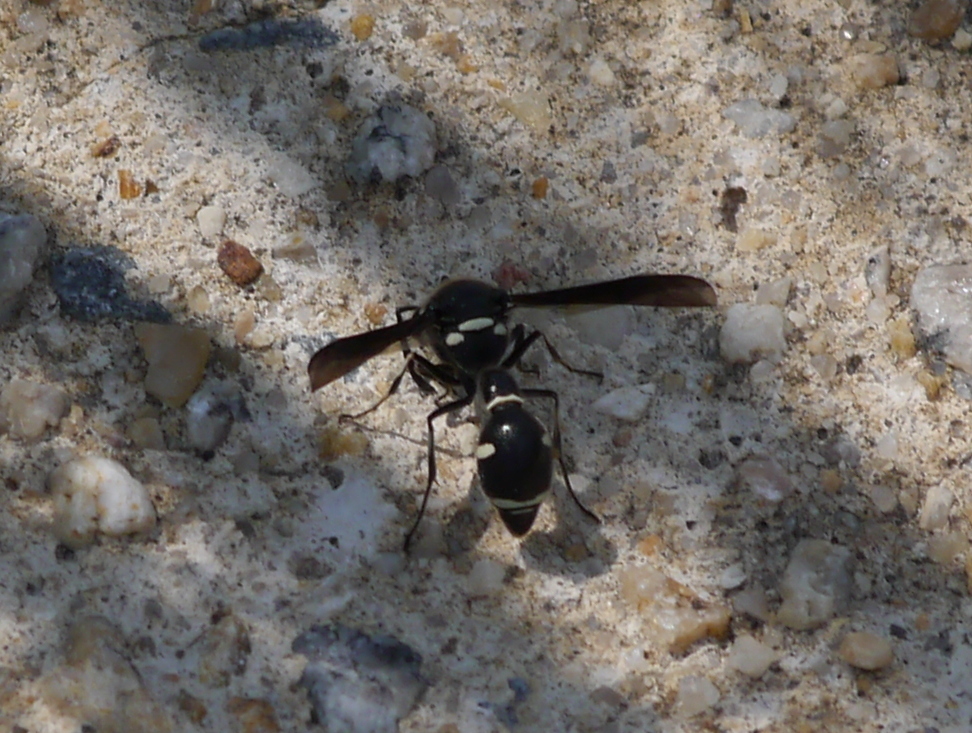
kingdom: Animalia
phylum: Arthropoda
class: Insecta
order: Hymenoptera
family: Vespidae
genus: Eumenes
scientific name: Eumenes fraternus
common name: Fraternal potter wasp
